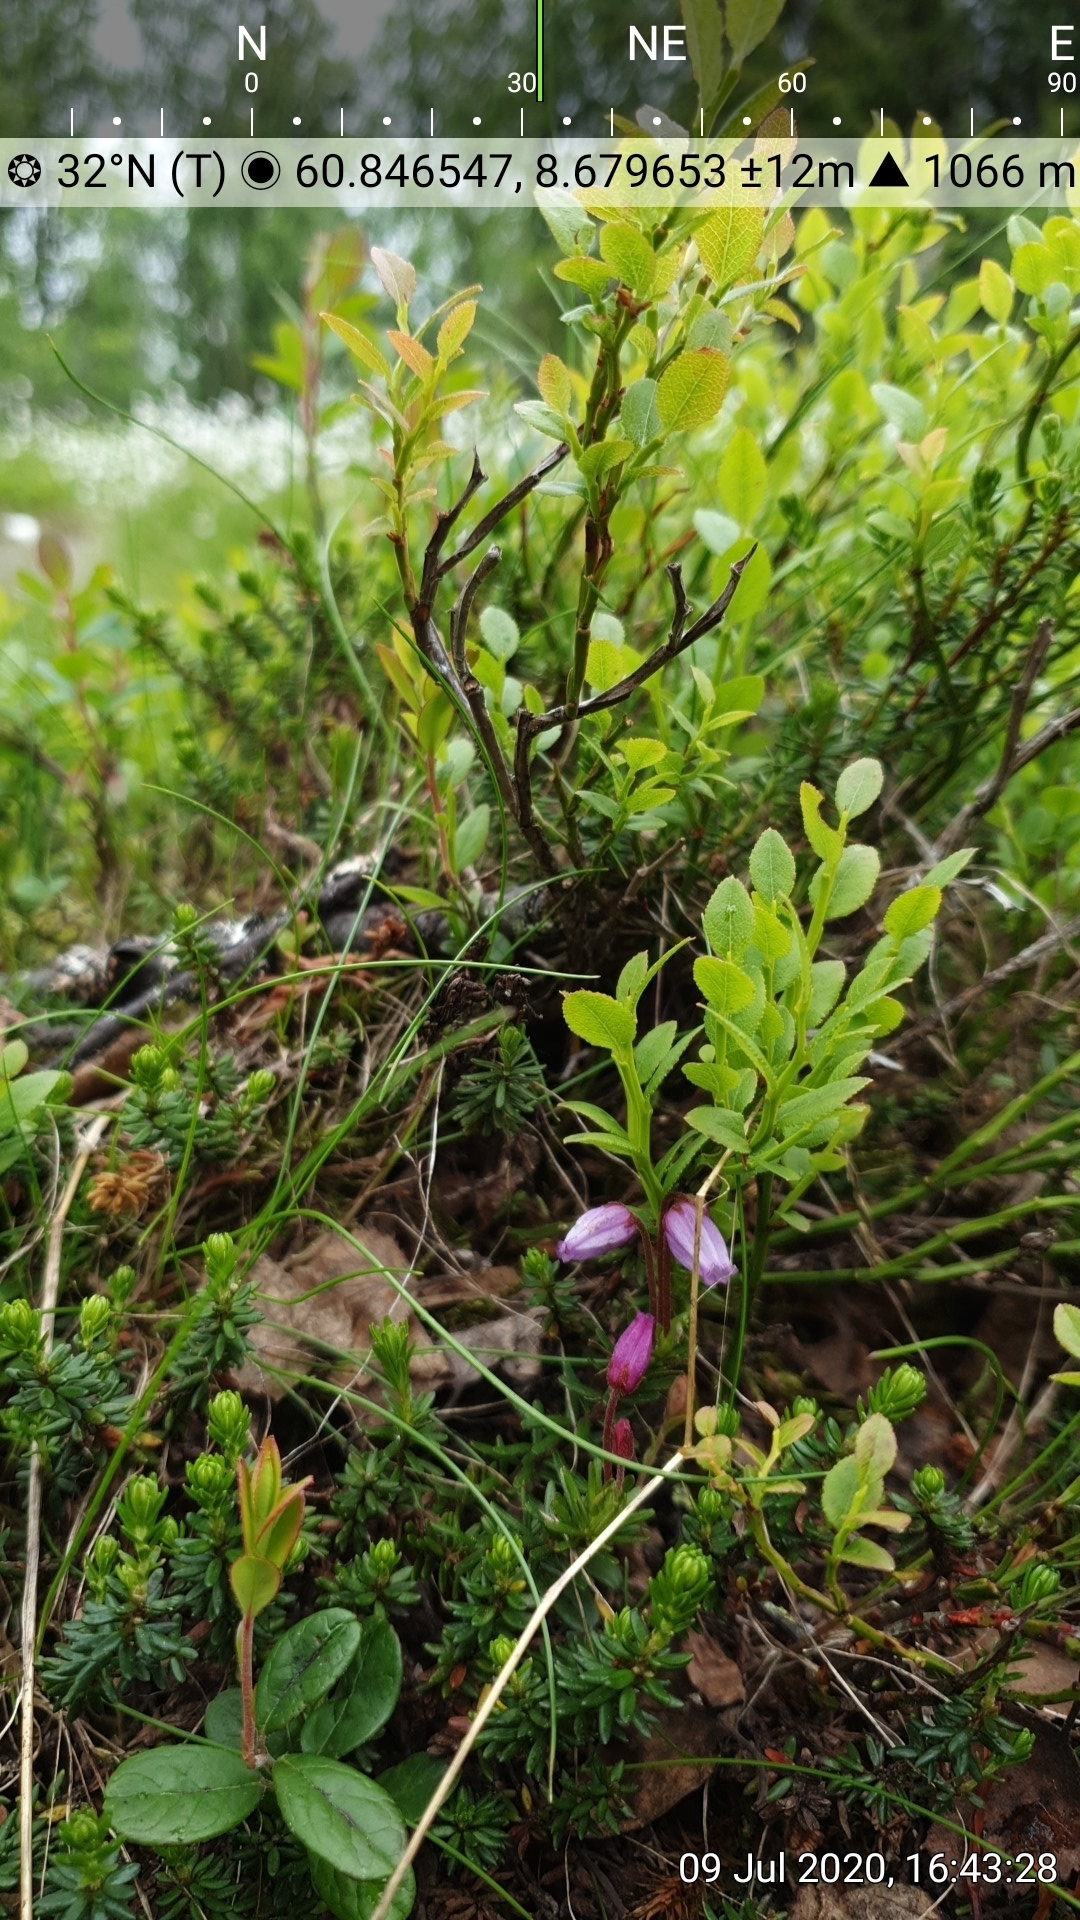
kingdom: Plantae
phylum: Tracheophyta
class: Magnoliopsida
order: Ericales
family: Ericaceae
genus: Phyllodoce
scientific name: Phyllodoce caerulea
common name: Blue heath
